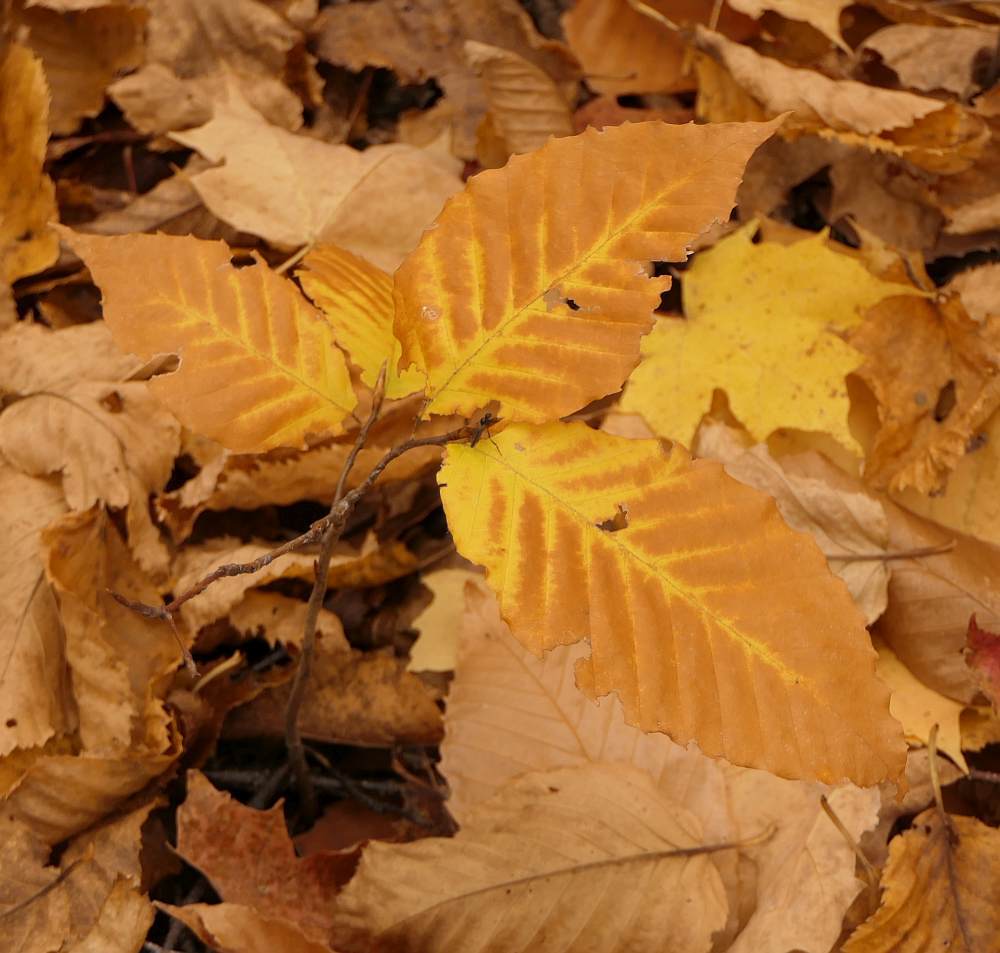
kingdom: Plantae
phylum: Tracheophyta
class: Magnoliopsida
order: Fagales
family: Fagaceae
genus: Fagus
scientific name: Fagus grandifolia
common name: American beech
